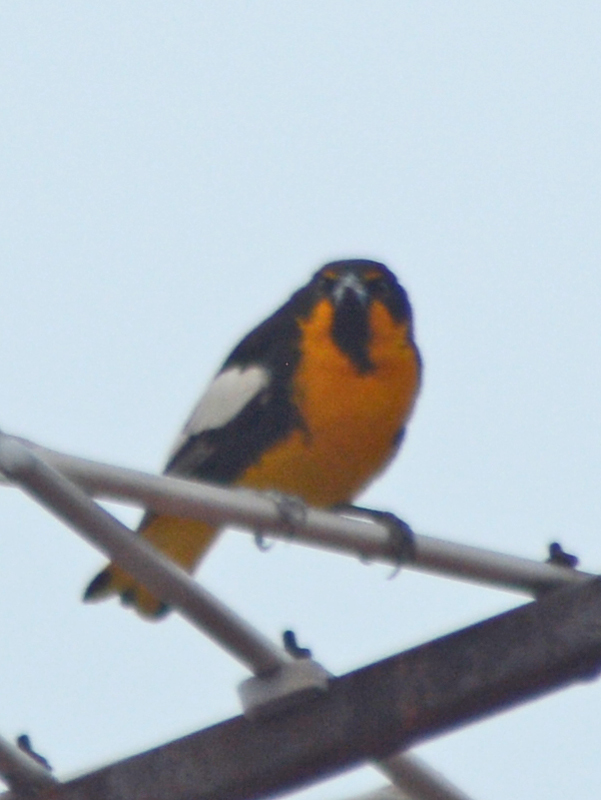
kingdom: Animalia
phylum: Chordata
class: Aves
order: Passeriformes
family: Icteridae
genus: Icterus
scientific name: Icterus abeillei
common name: Black-backed oriole
